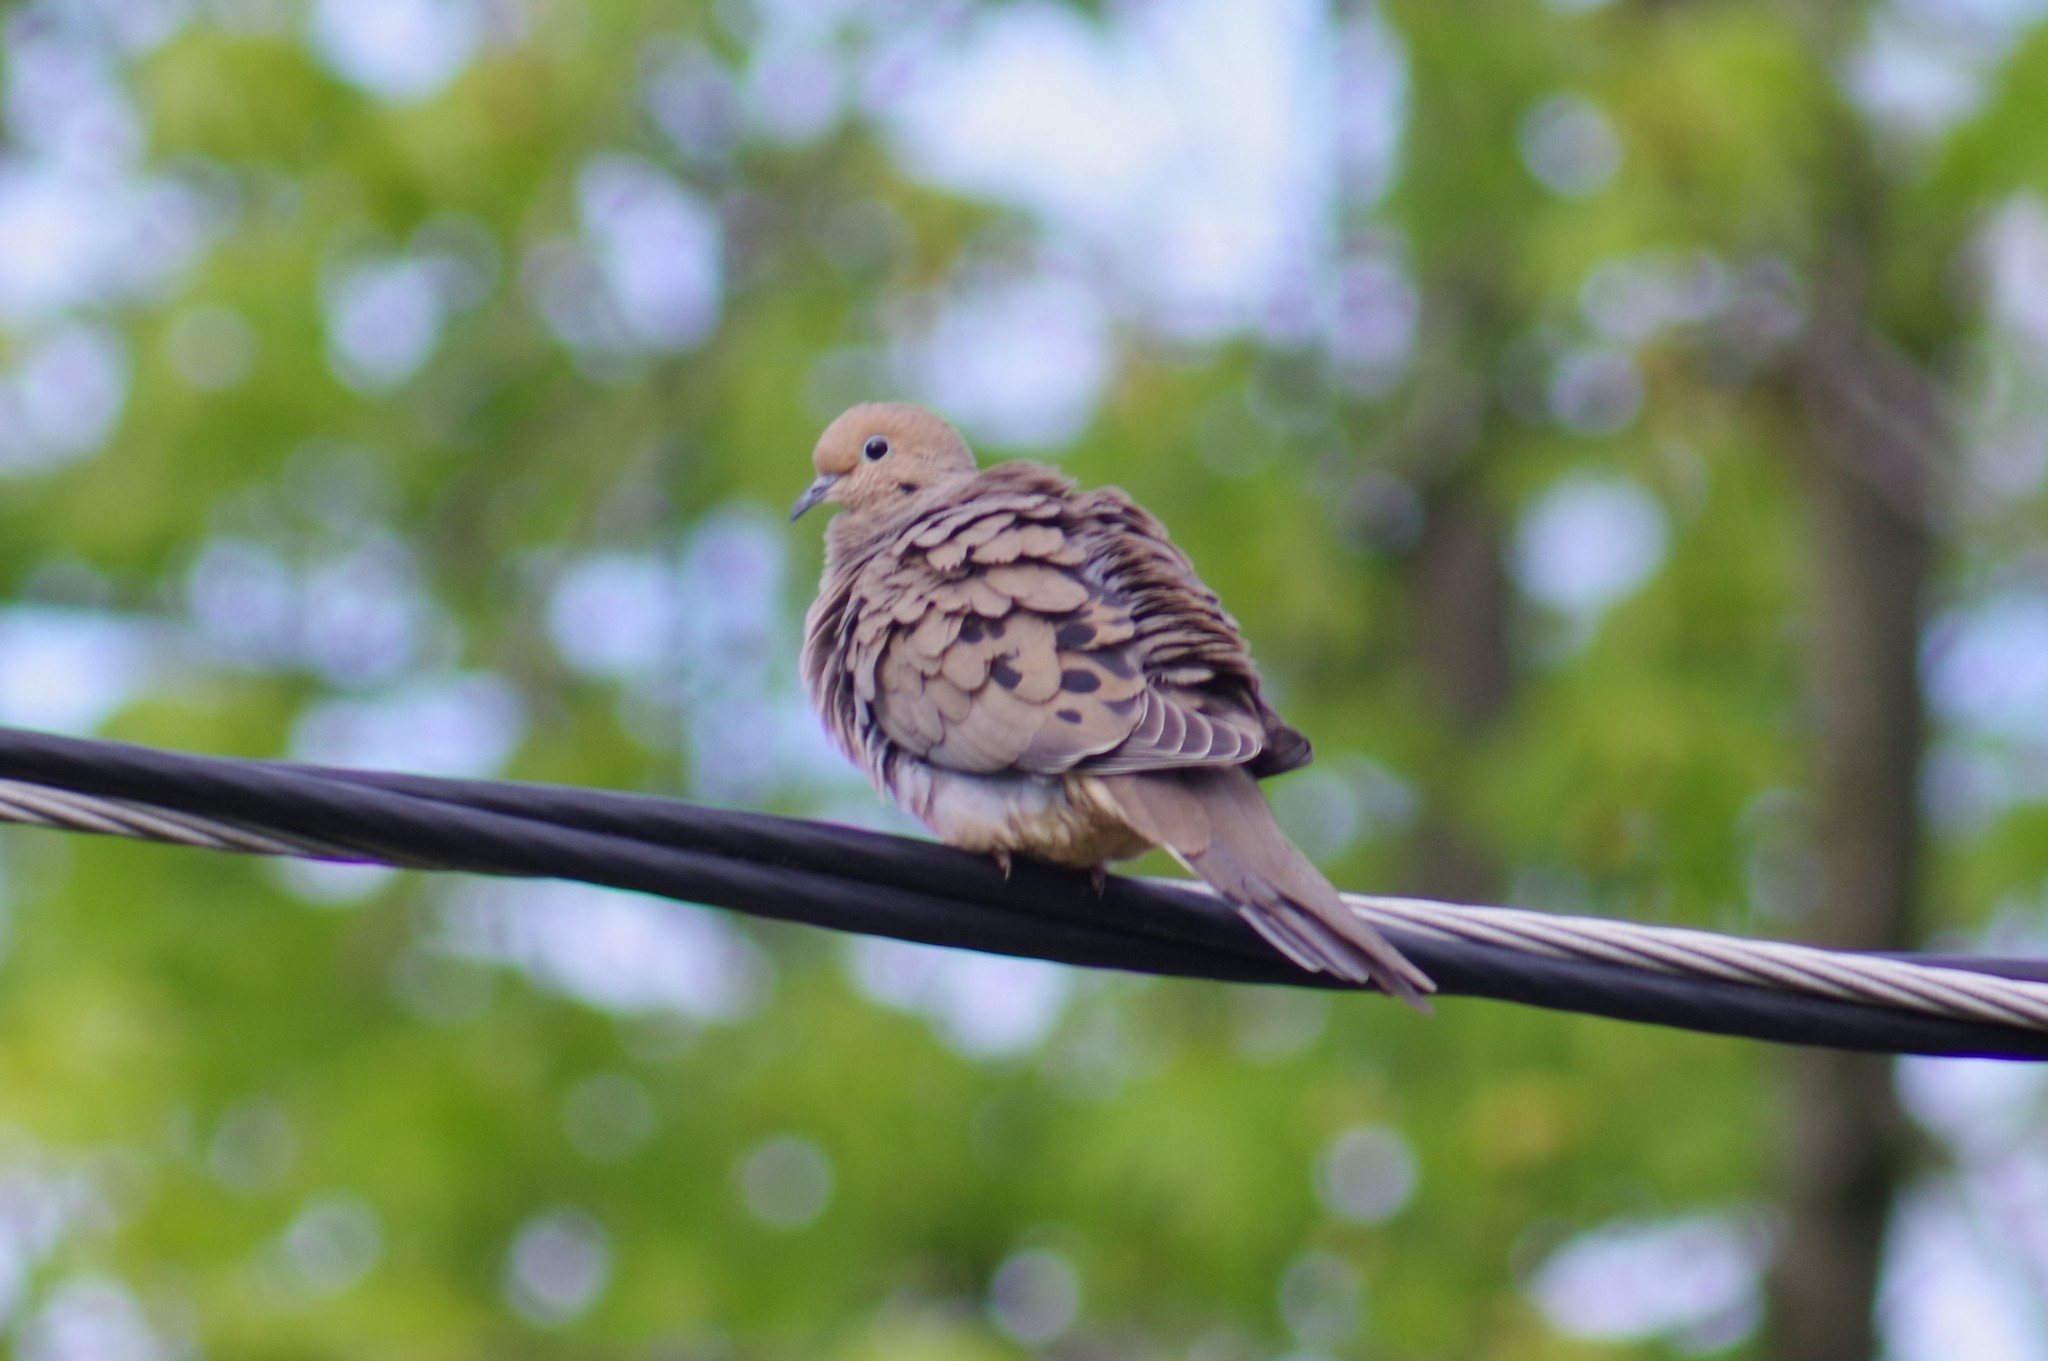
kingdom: Animalia
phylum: Chordata
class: Aves
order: Columbiformes
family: Columbidae
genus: Zenaida
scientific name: Zenaida macroura
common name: Mourning dove
